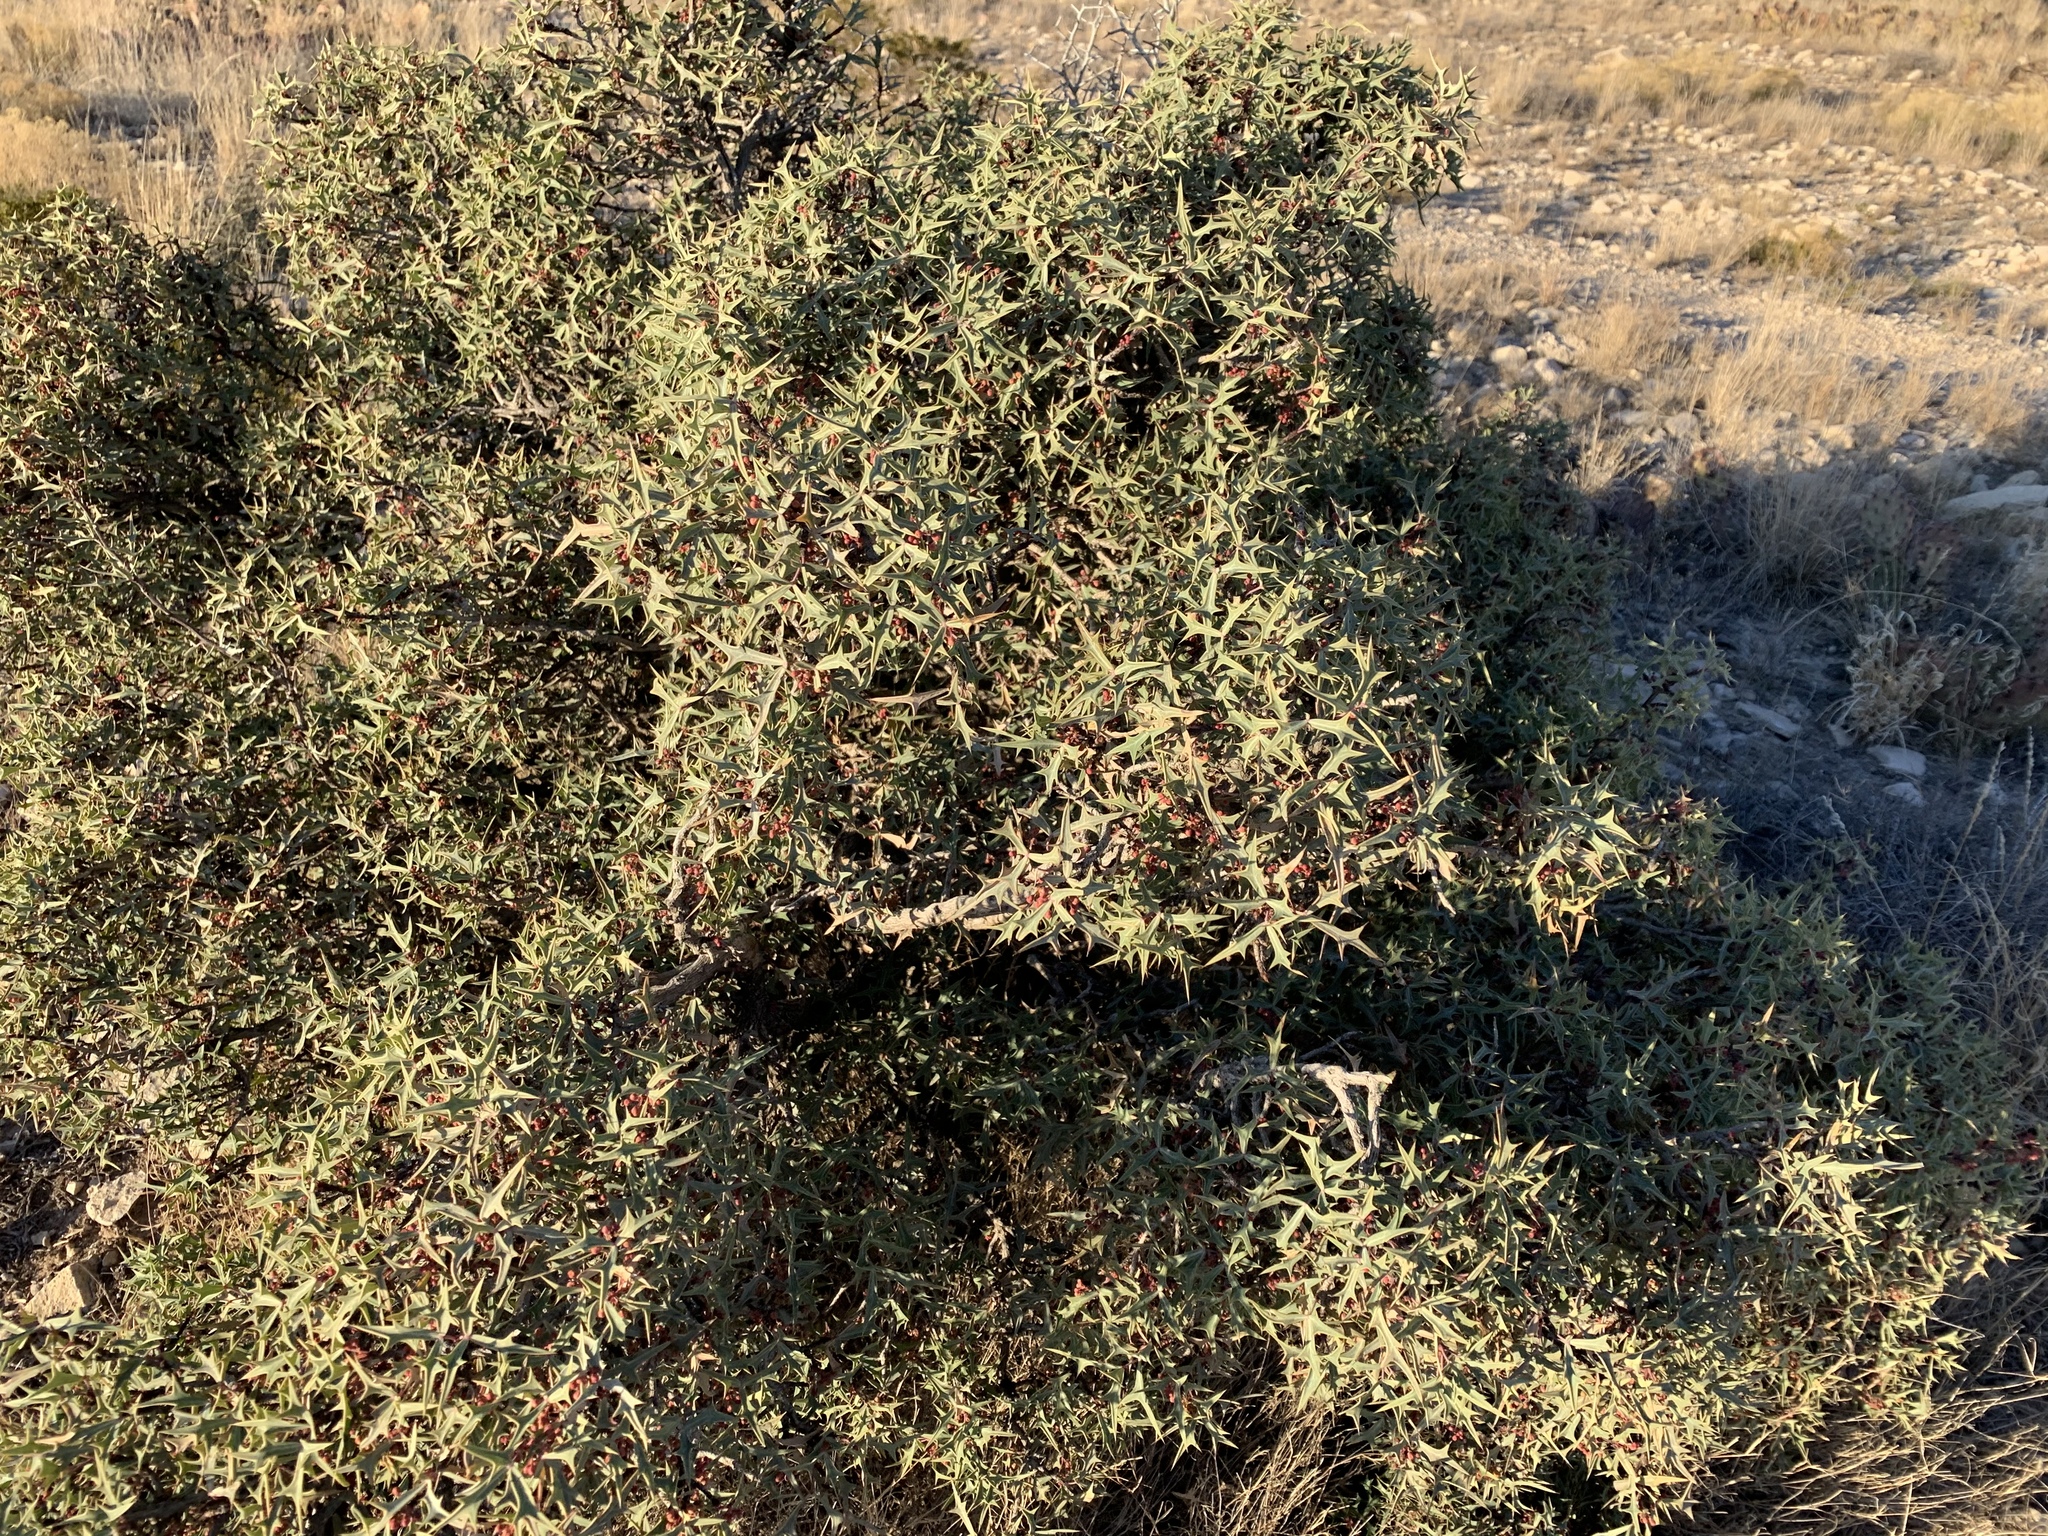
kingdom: Plantae
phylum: Tracheophyta
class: Magnoliopsida
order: Ranunculales
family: Berberidaceae
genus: Alloberberis
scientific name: Alloberberis trifoliolata
